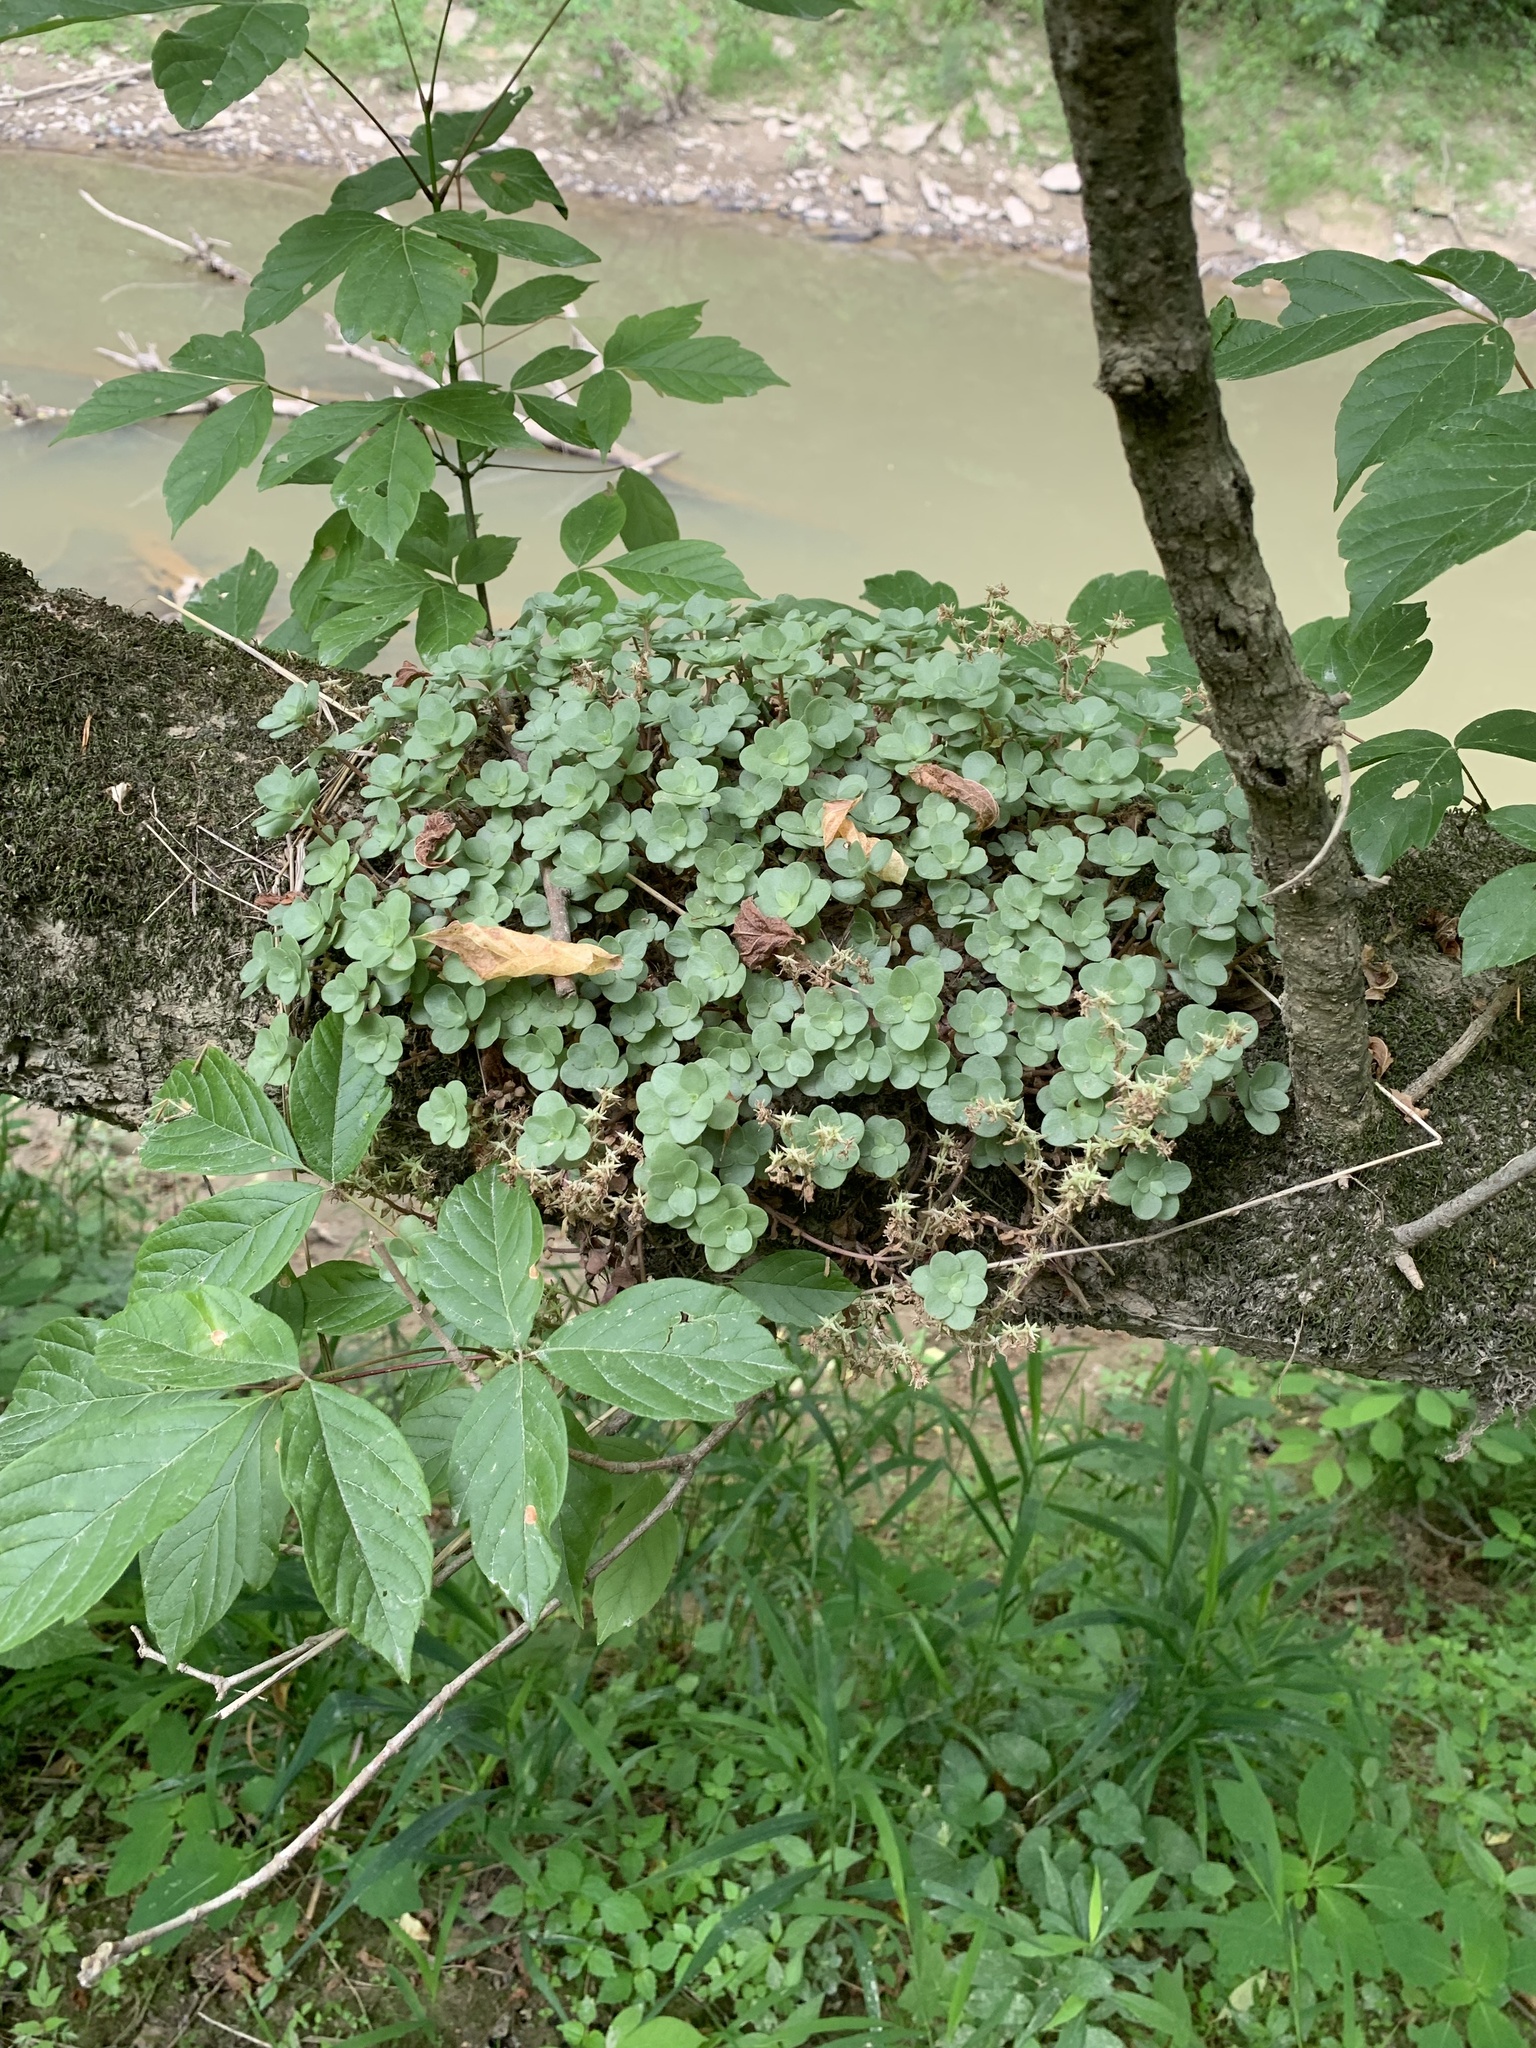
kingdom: Plantae
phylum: Tracheophyta
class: Magnoliopsida
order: Saxifragales
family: Crassulaceae
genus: Sedum
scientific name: Sedum ternatum
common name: Wild stonecrop
